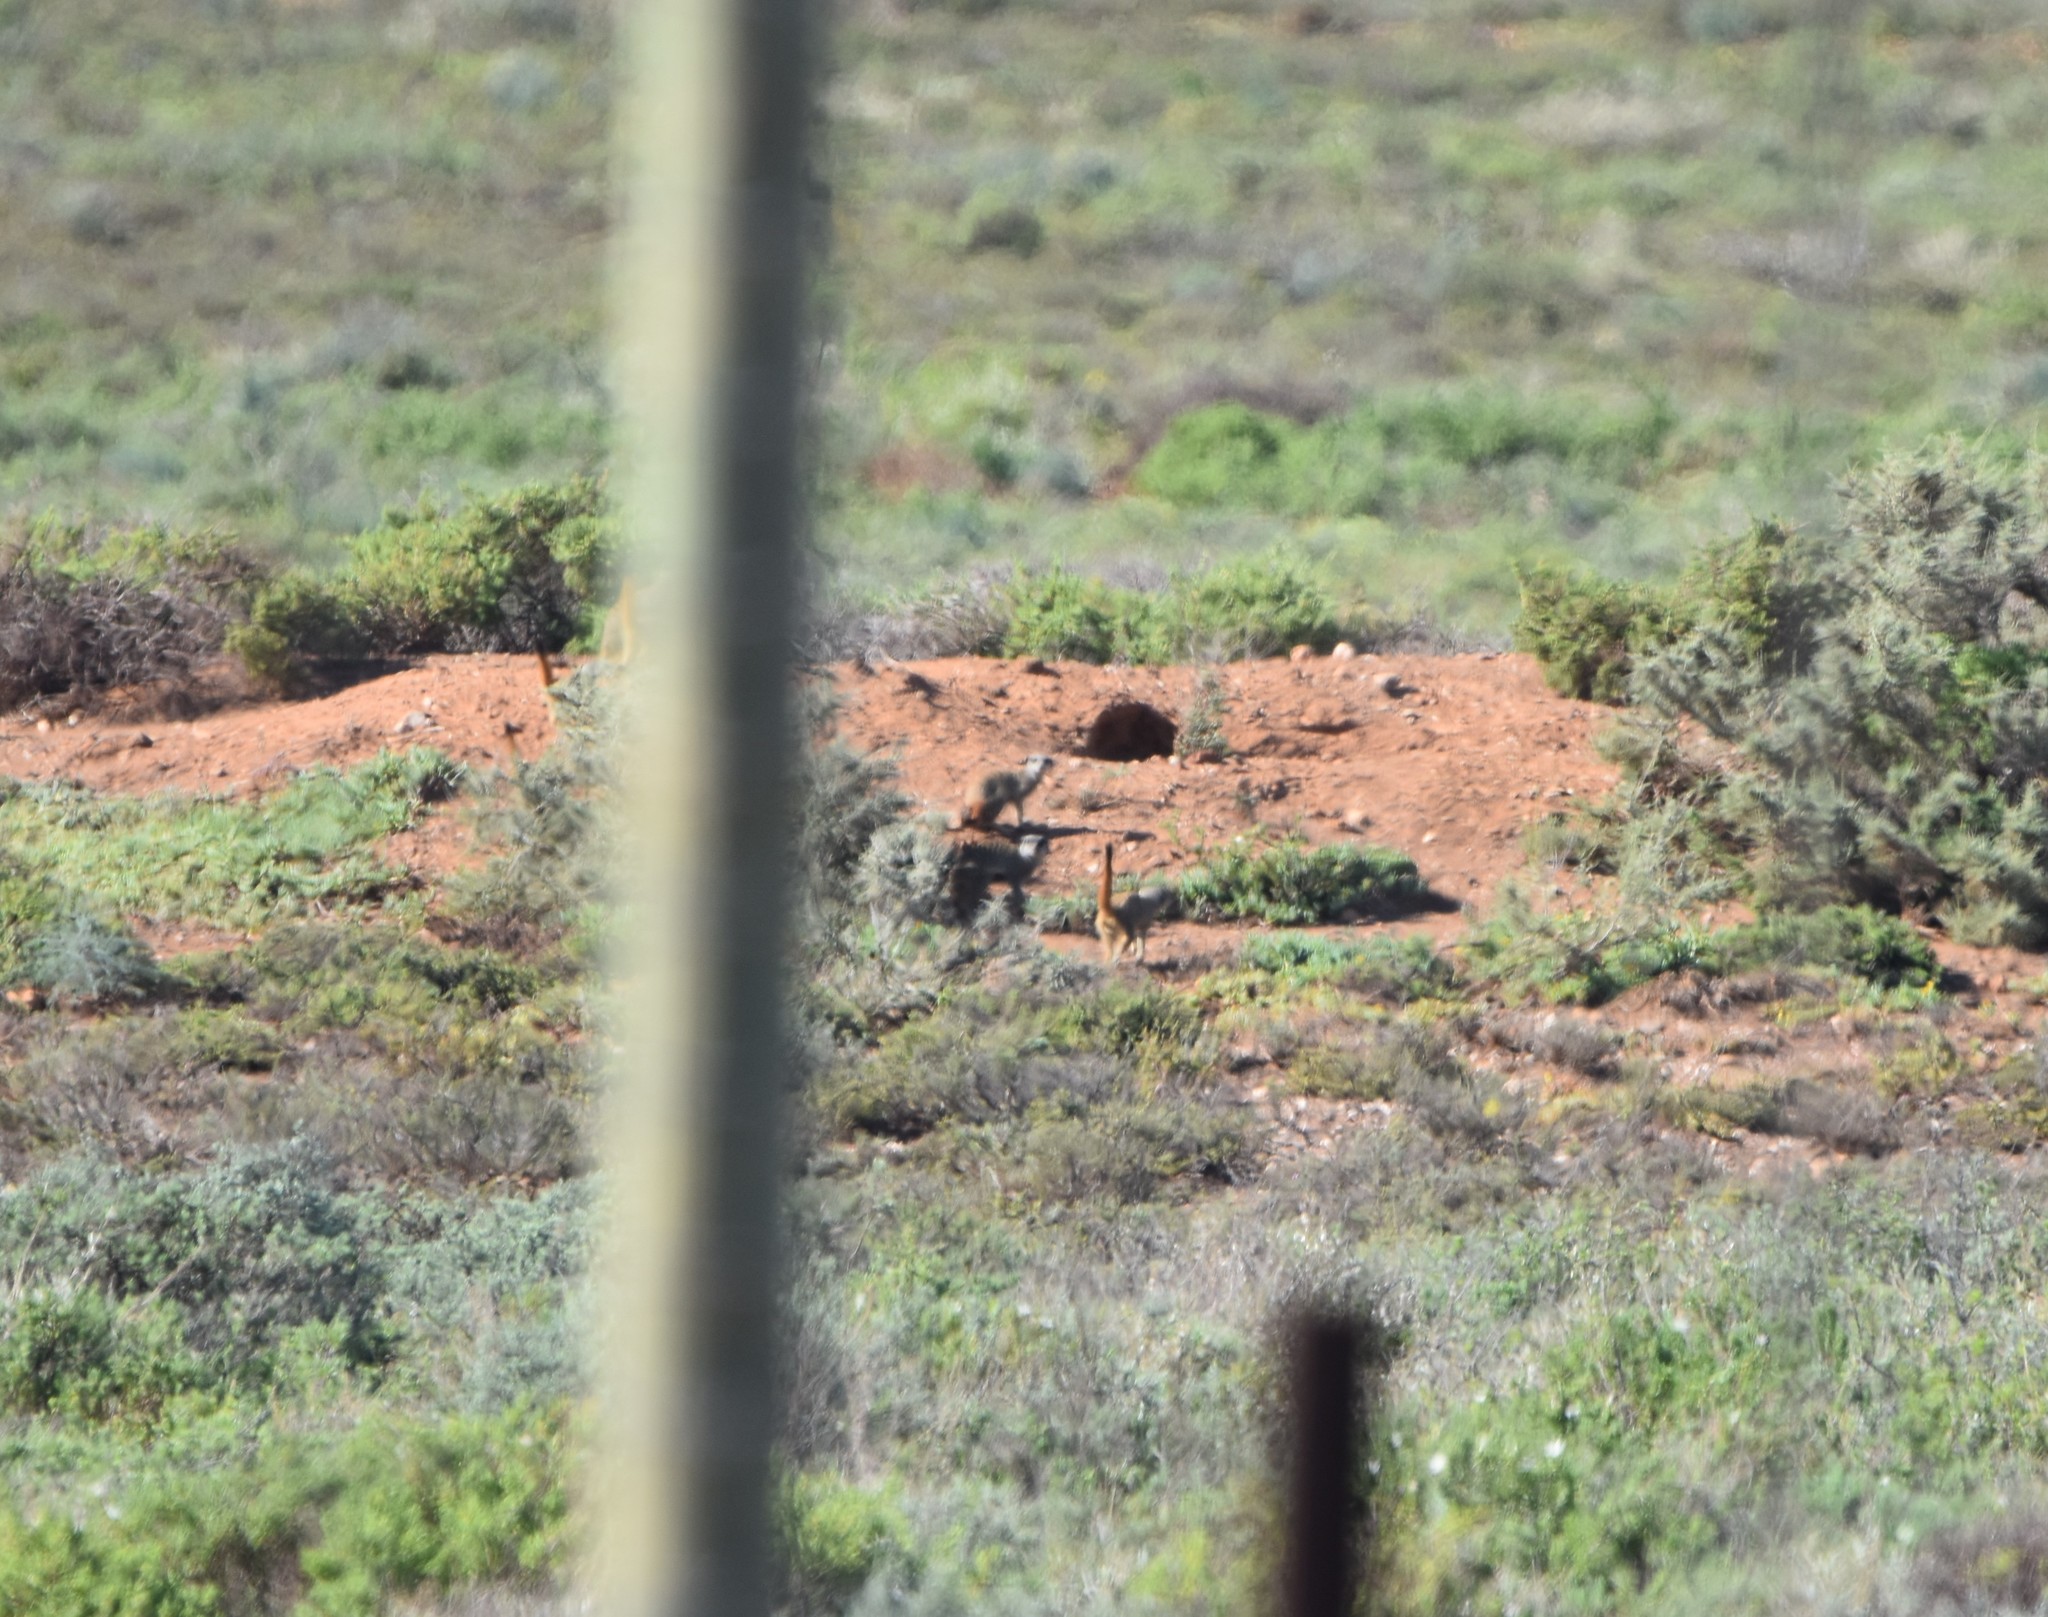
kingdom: Animalia
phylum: Chordata
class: Mammalia
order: Carnivora
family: Herpestidae
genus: Suricata
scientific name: Suricata suricatta
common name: Meerkat
